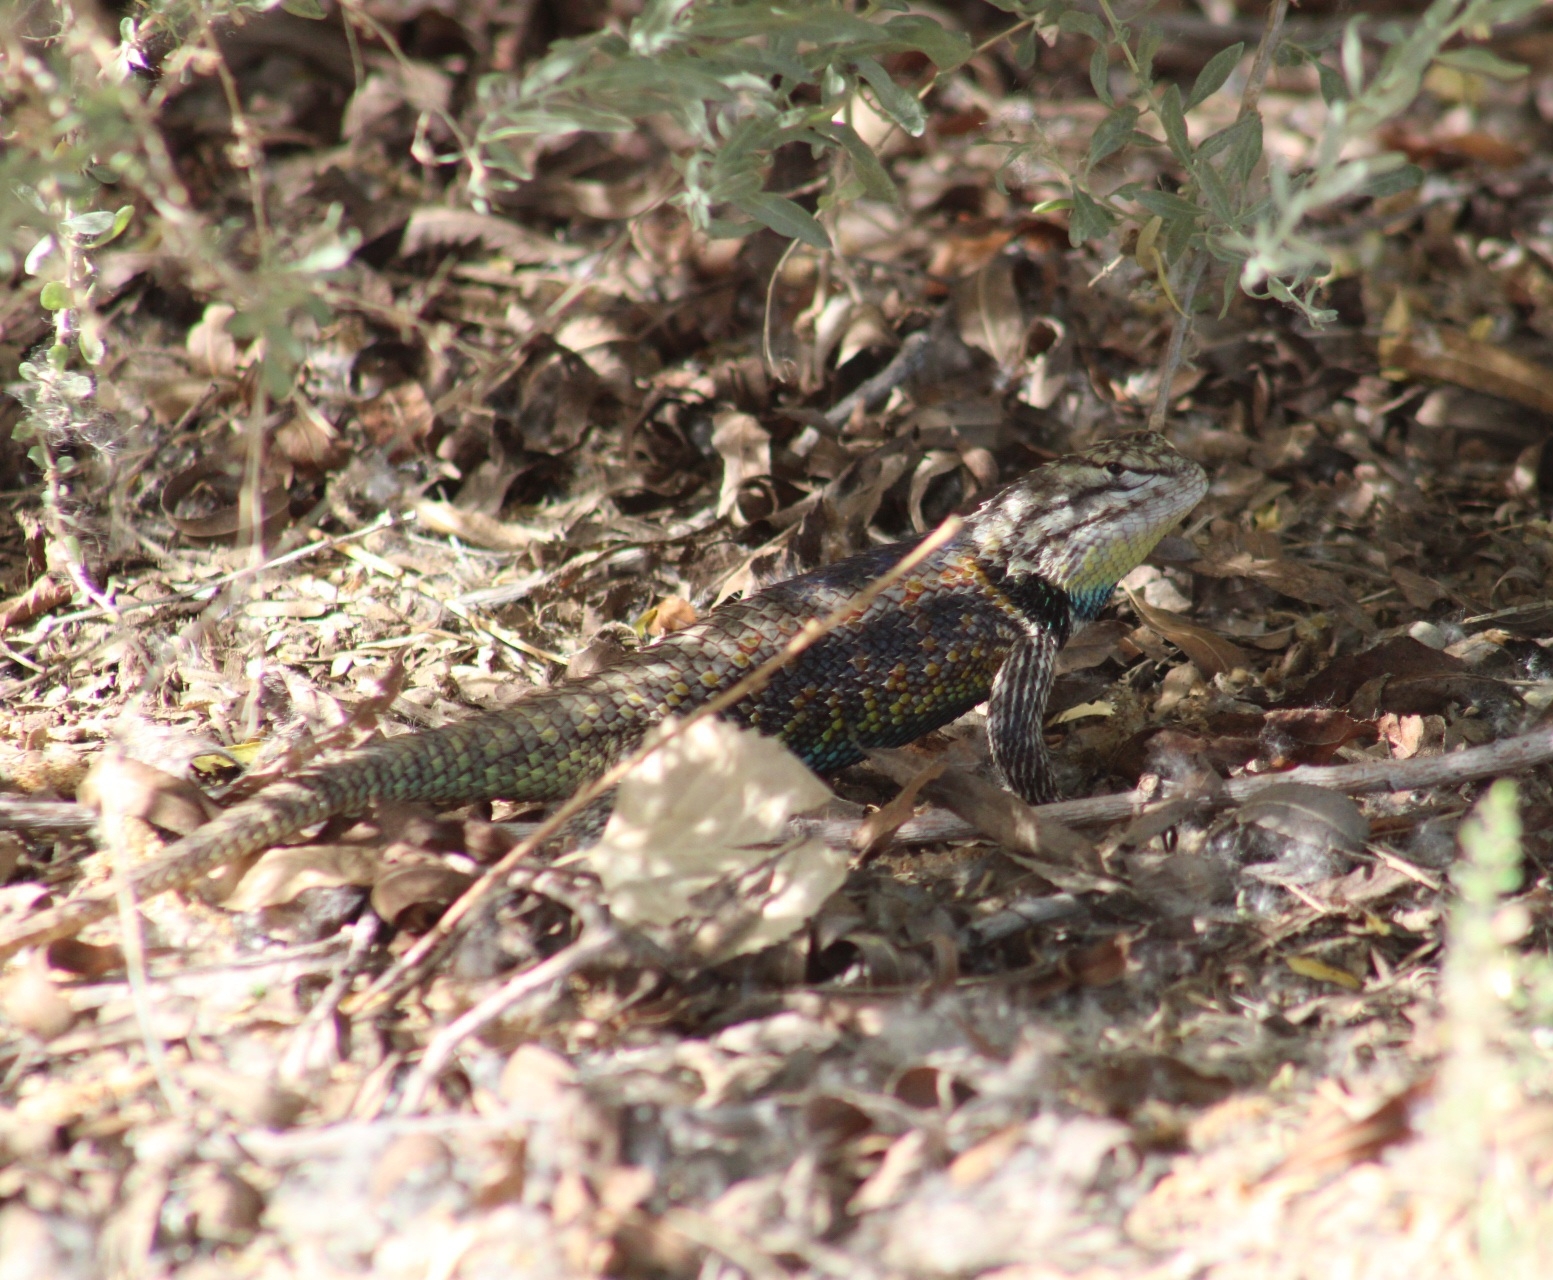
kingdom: Animalia
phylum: Chordata
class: Squamata
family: Phrynosomatidae
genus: Sceloporus
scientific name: Sceloporus magister
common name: Desert spiny lizard
